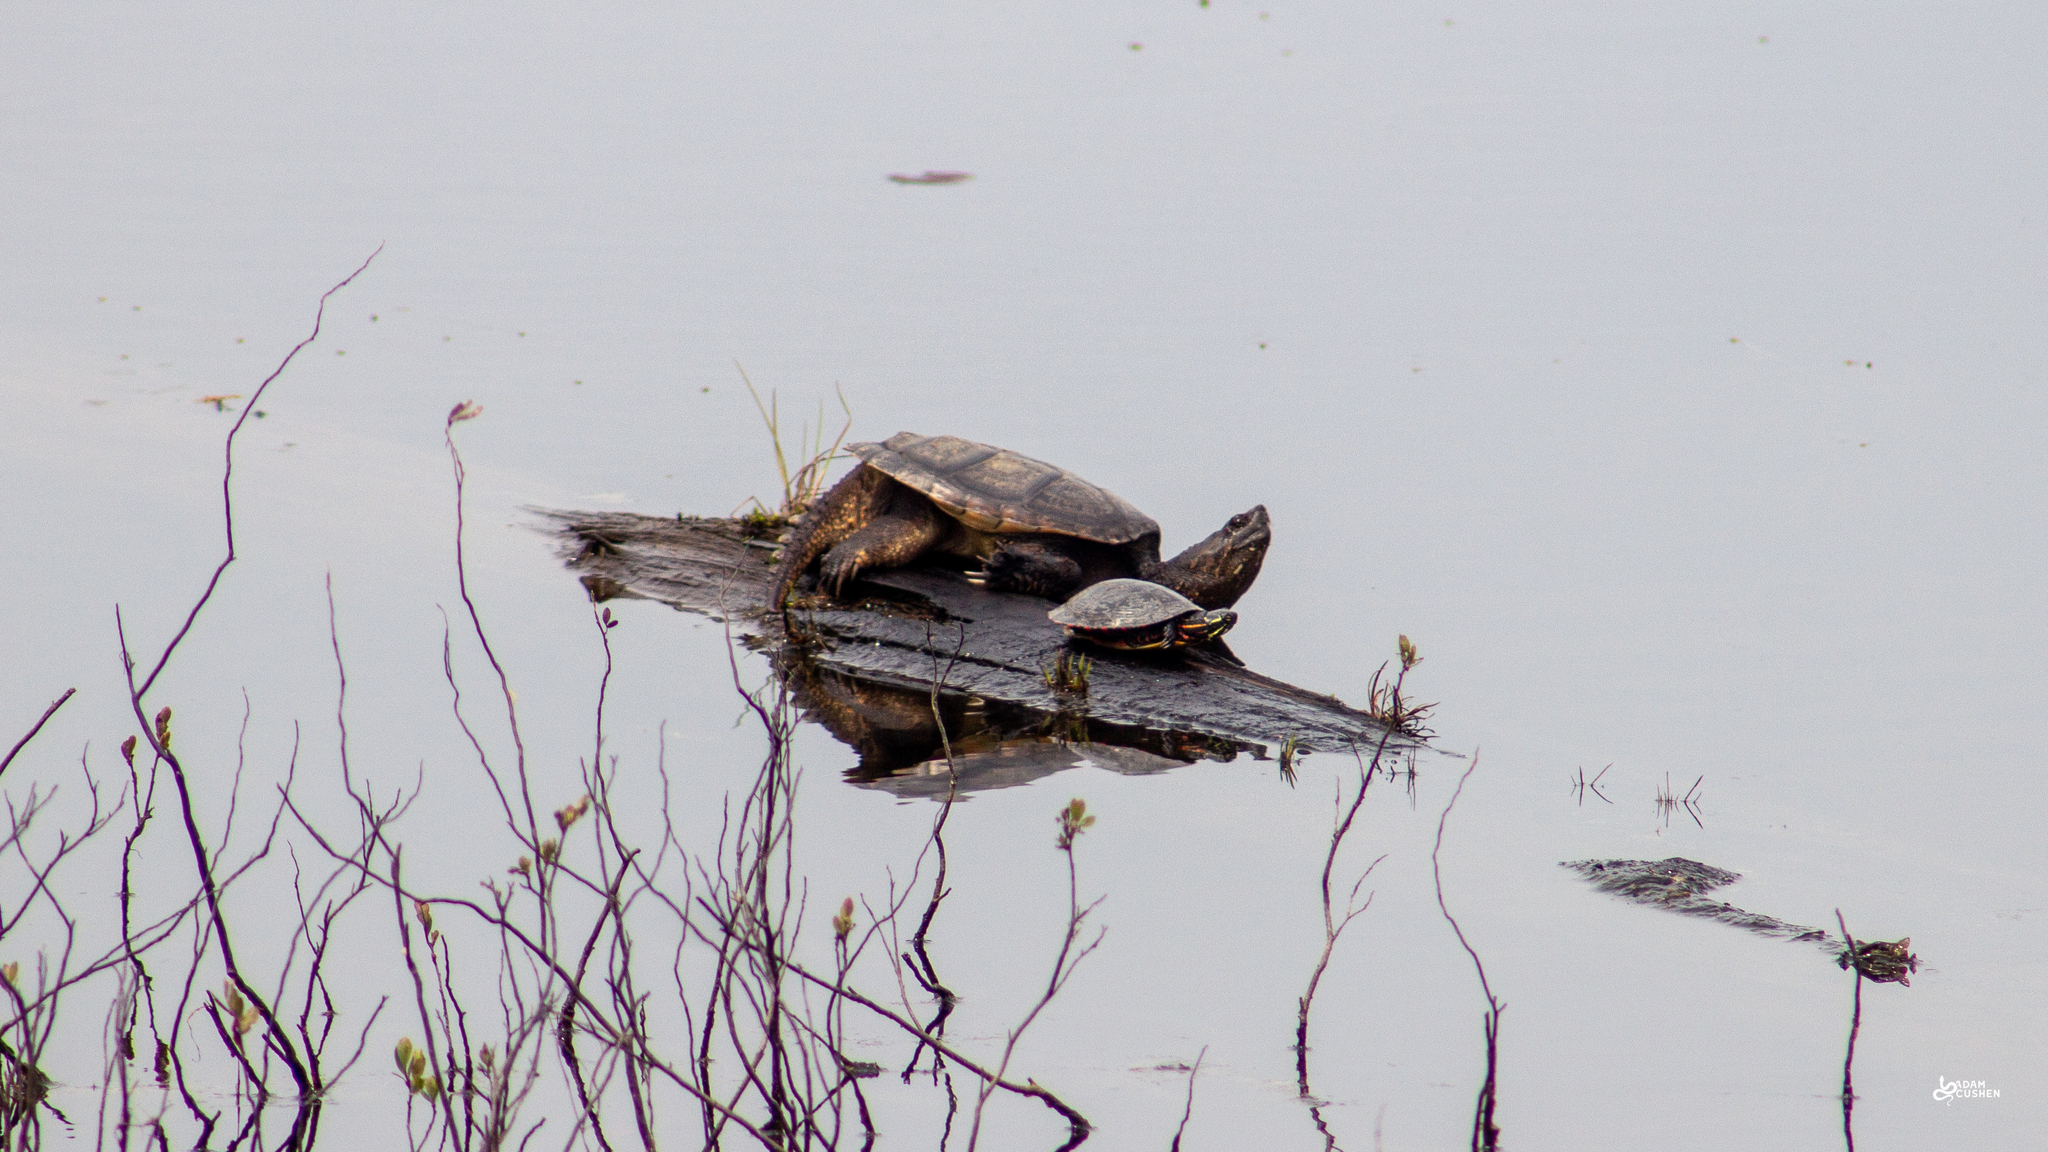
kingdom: Animalia
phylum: Chordata
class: Testudines
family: Chelydridae
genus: Chelydra
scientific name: Chelydra serpentina
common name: Common snapping turtle
